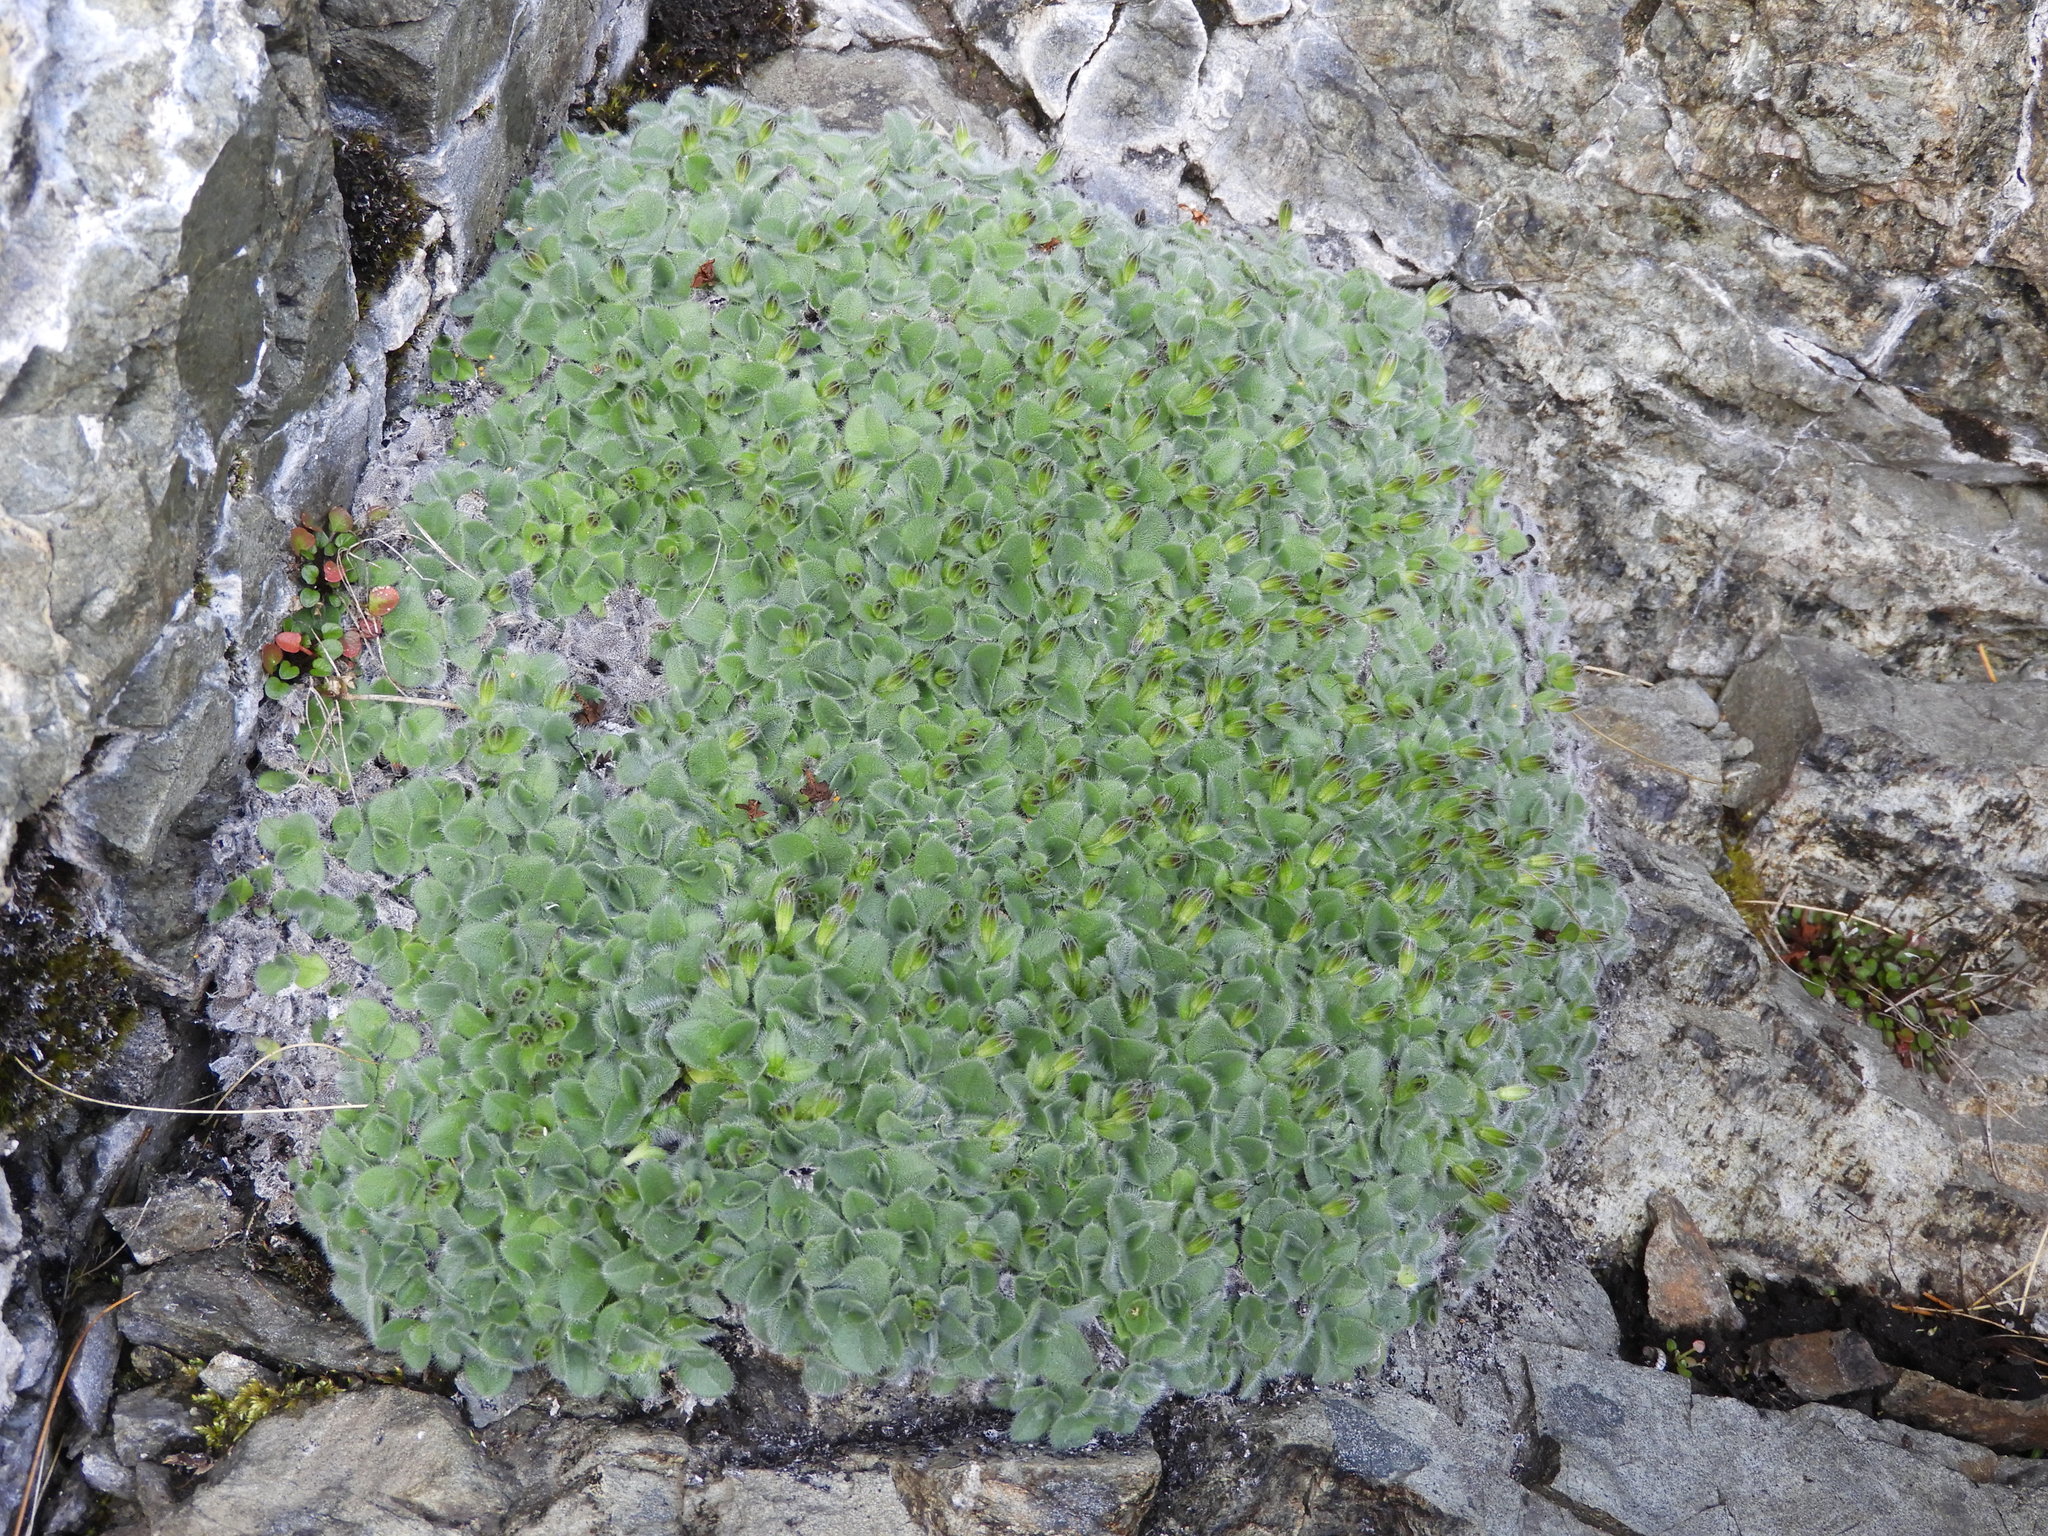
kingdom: Plantae
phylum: Tracheophyta
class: Magnoliopsida
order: Boraginales
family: Boraginaceae
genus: Myosotis
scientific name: Myosotis retrorsa
